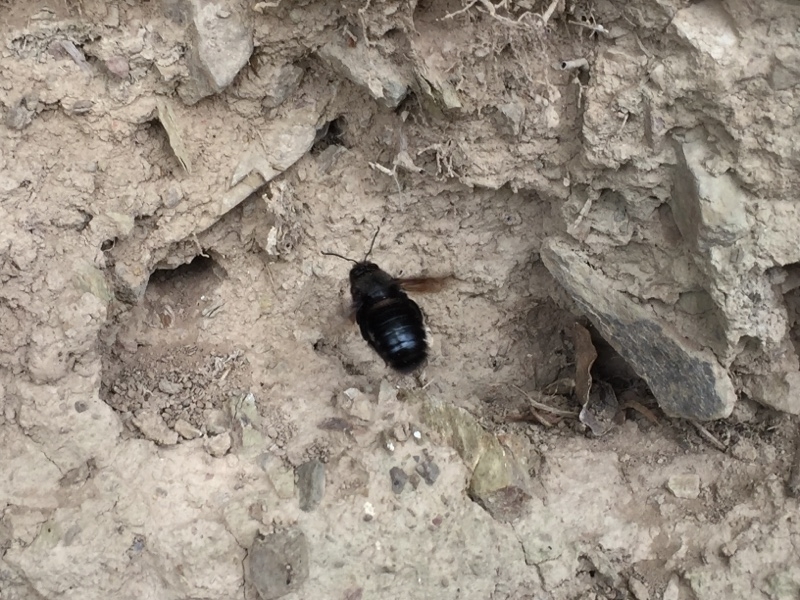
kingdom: Animalia
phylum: Arthropoda
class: Insecta
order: Hymenoptera
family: Apidae
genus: Xylocopa
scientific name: Xylocopa violacea
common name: Violet carpenter bee
